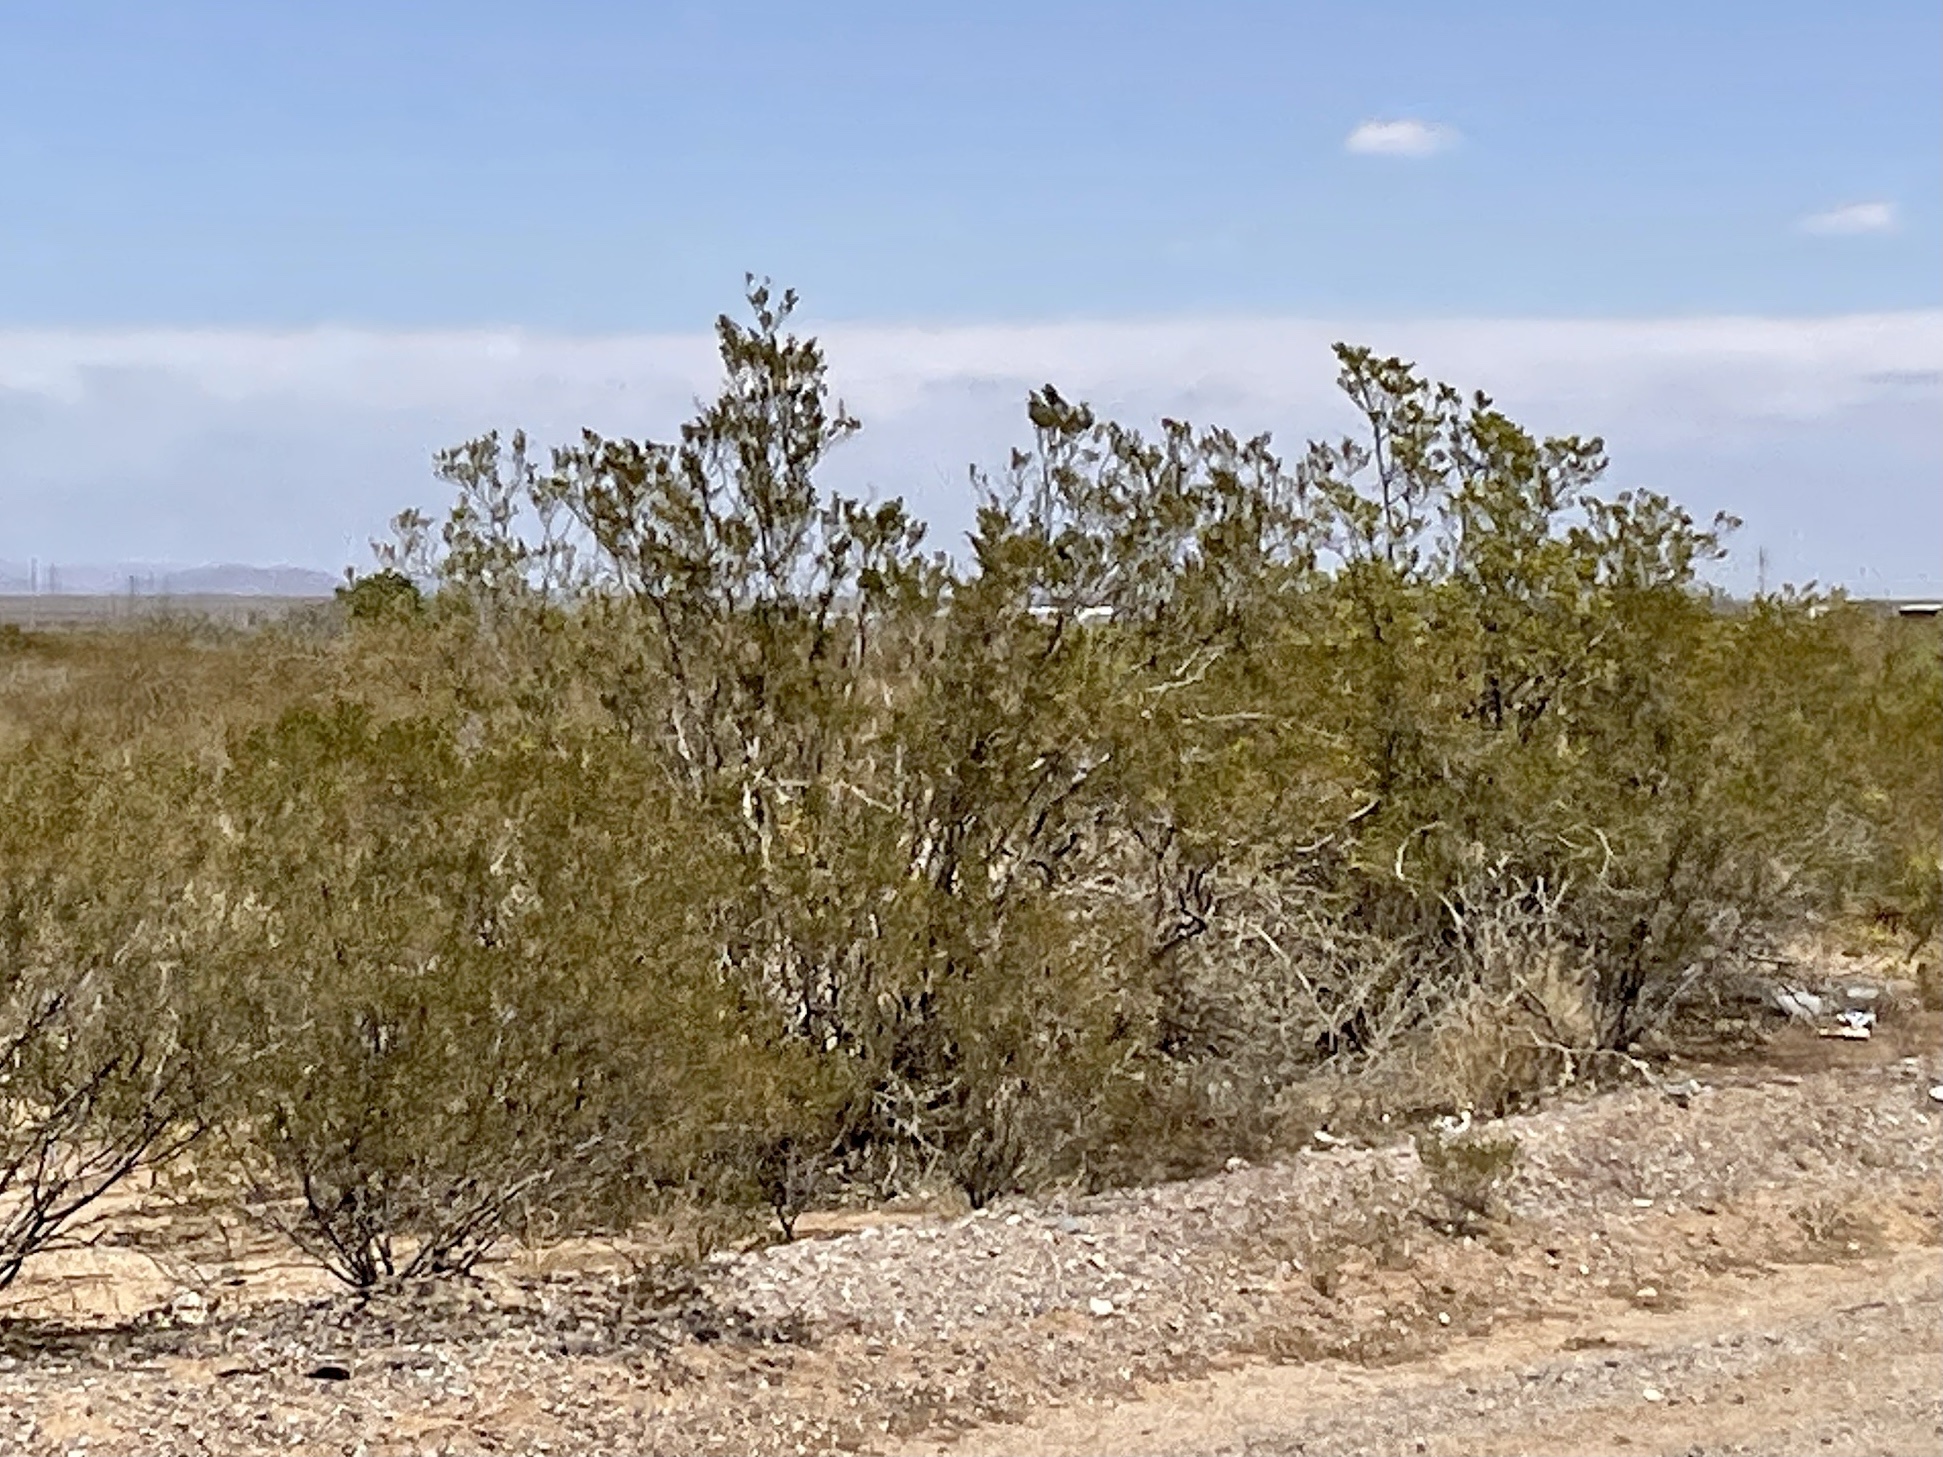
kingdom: Plantae
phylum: Tracheophyta
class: Magnoliopsida
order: Zygophyllales
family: Zygophyllaceae
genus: Larrea
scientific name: Larrea tridentata
